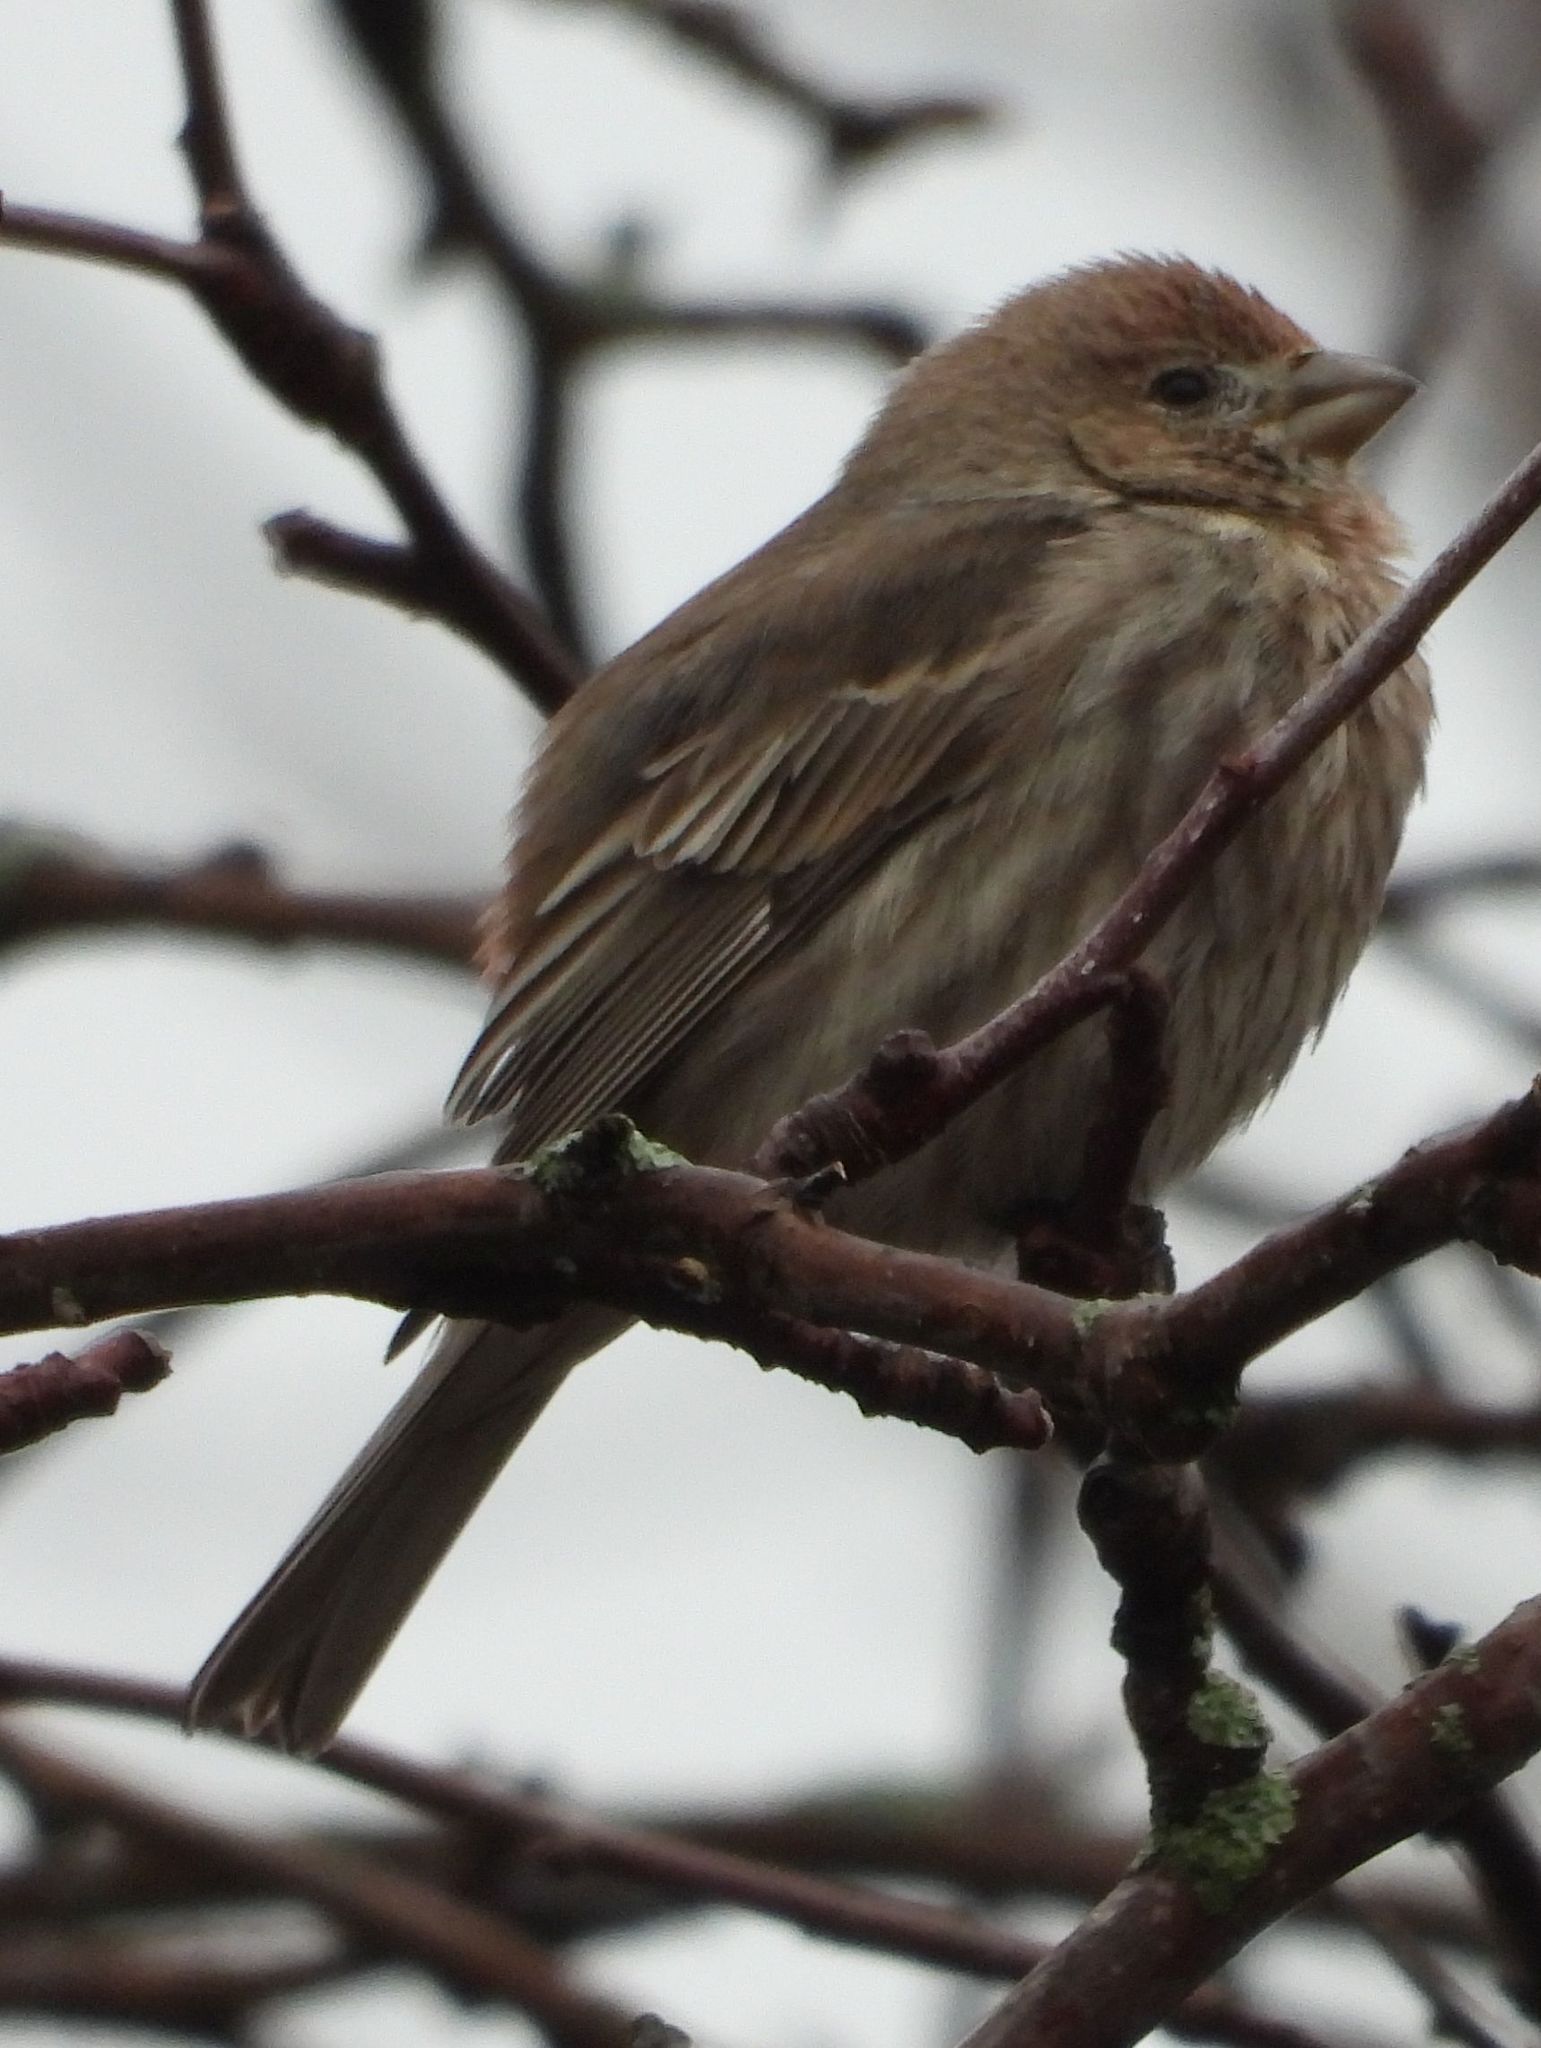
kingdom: Animalia
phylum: Chordata
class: Aves
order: Passeriformes
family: Fringillidae
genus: Haemorhous
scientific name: Haemorhous mexicanus
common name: House finch
